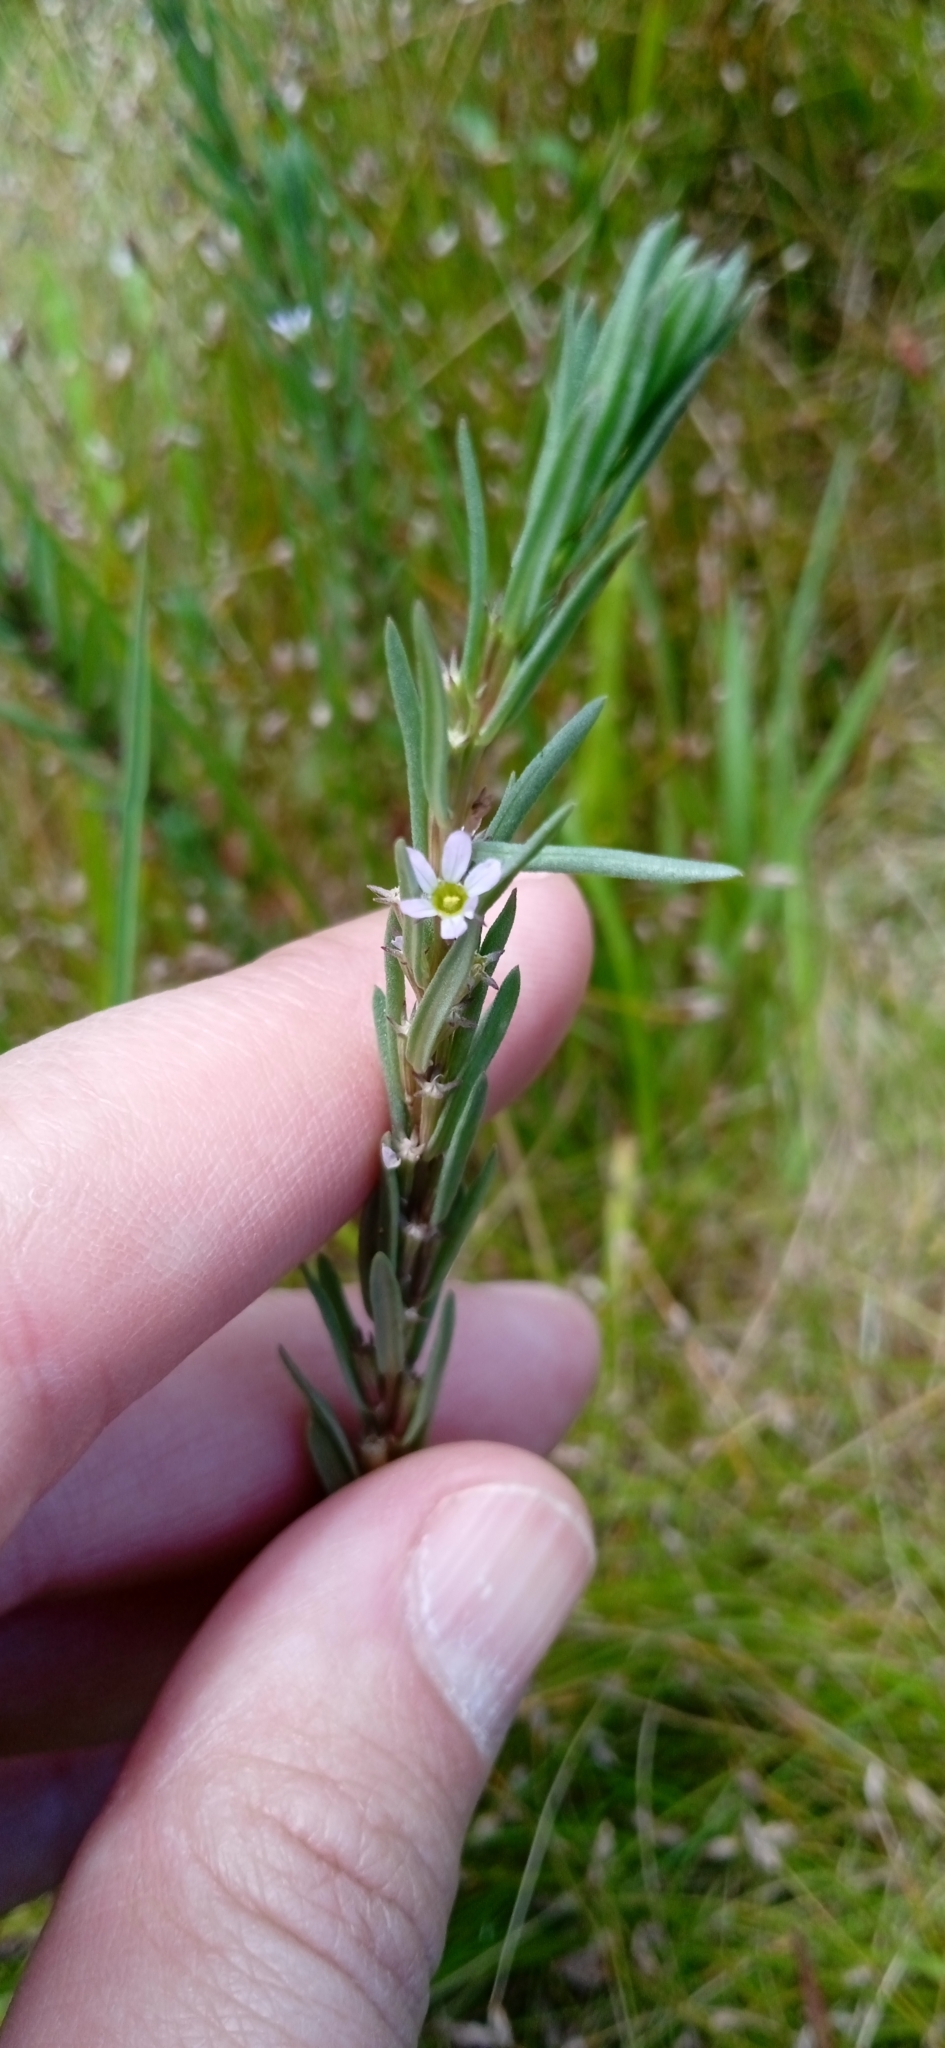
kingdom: Plantae
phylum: Tracheophyta
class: Magnoliopsida
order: Myrtales
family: Lythraceae
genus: Lythrum
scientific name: Lythrum hyssopifolia
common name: Grass-poly
